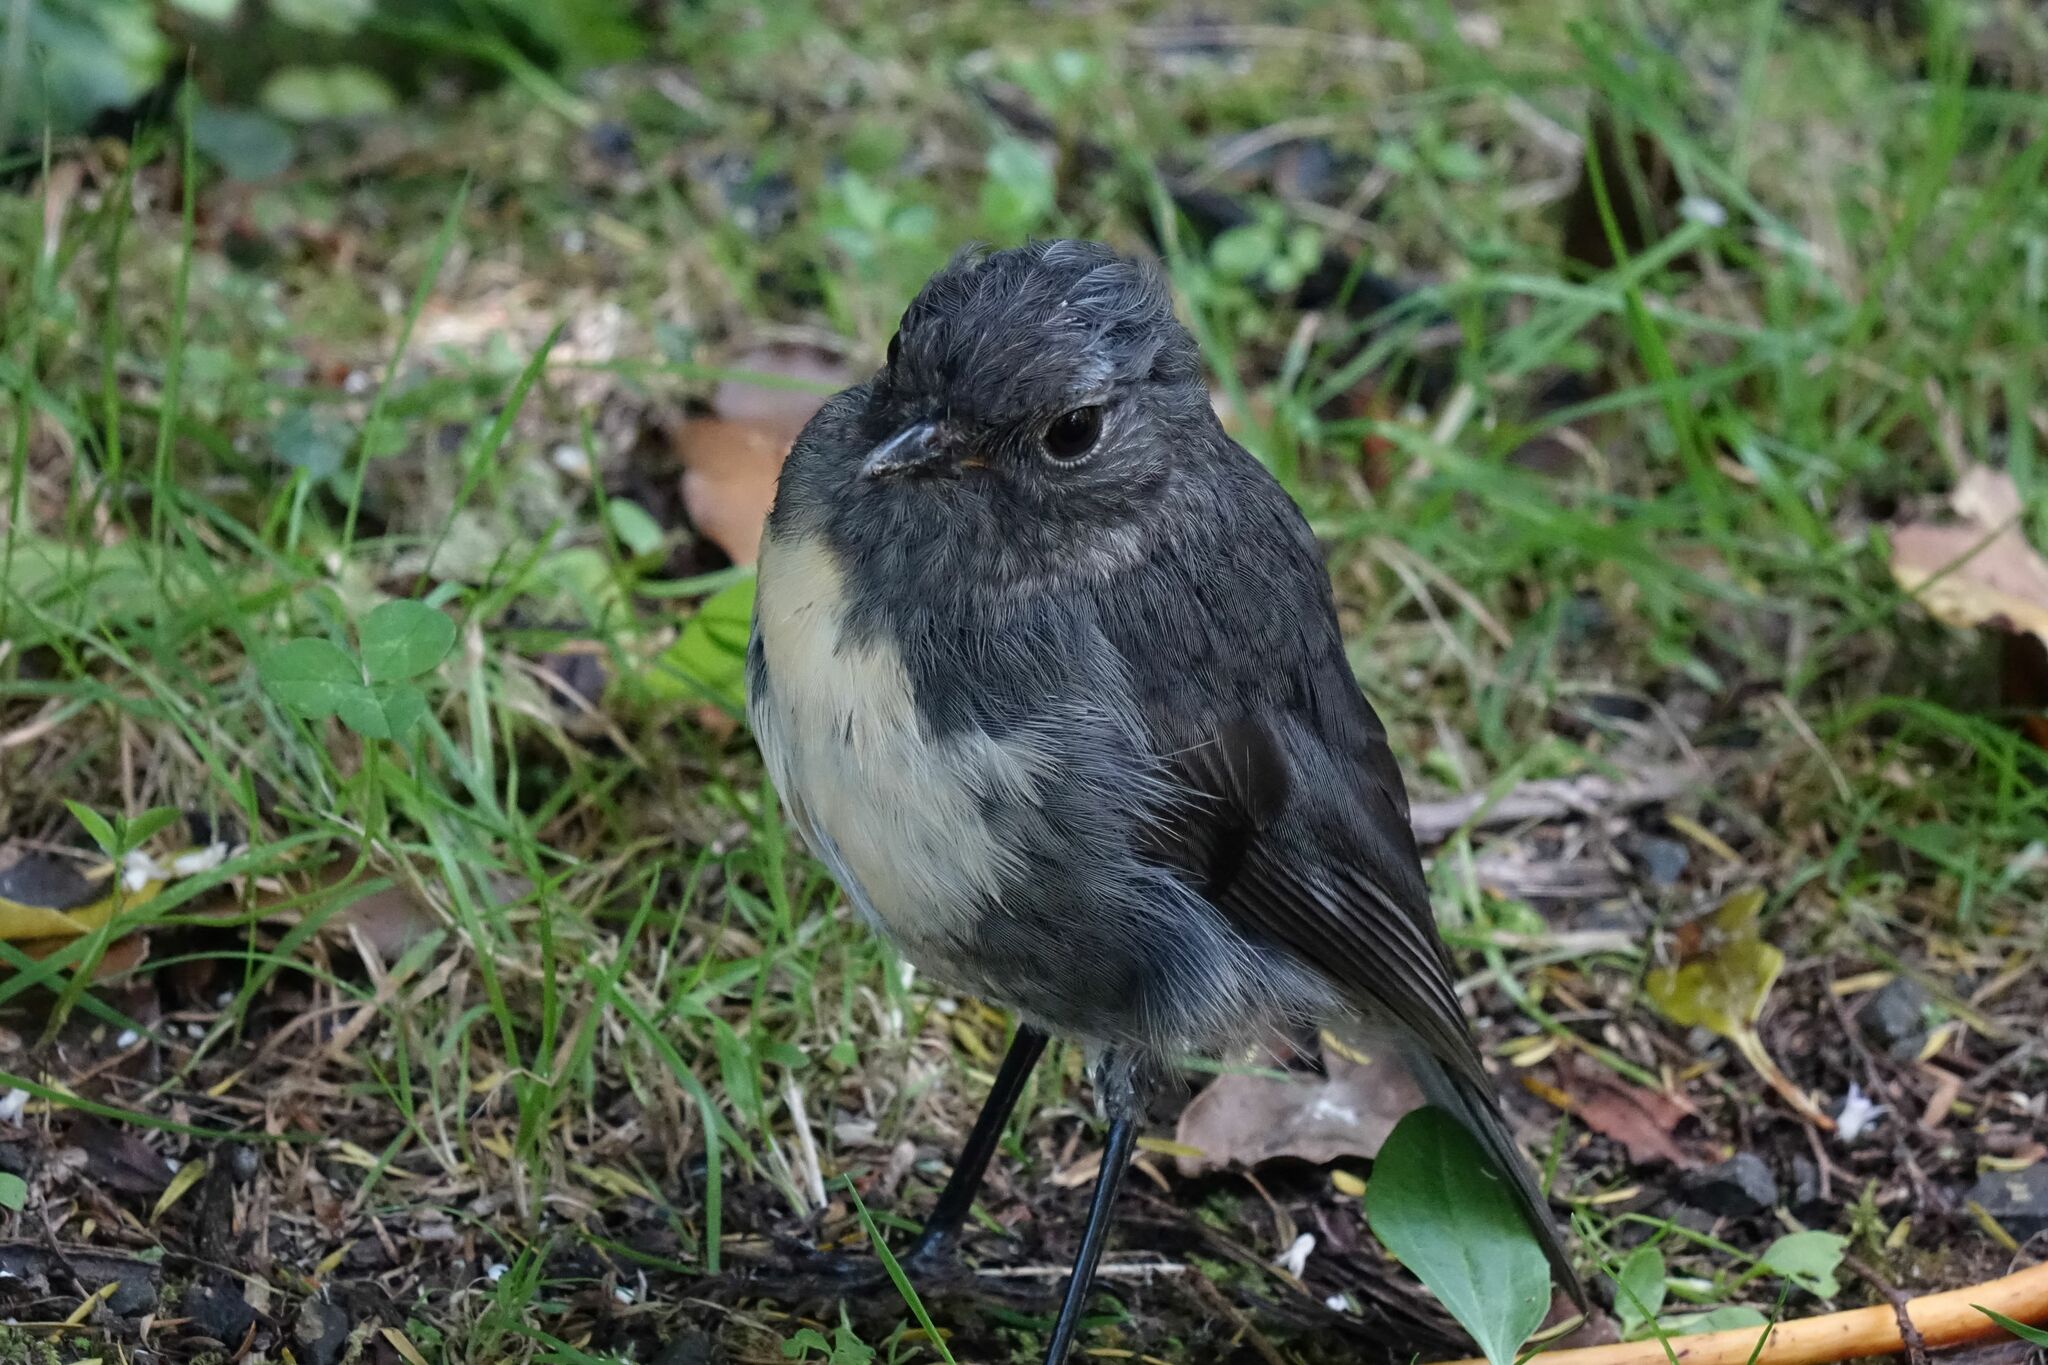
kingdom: Animalia
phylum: Chordata
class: Aves
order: Passeriformes
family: Petroicidae
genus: Petroica
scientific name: Petroica australis
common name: New zealand robin
